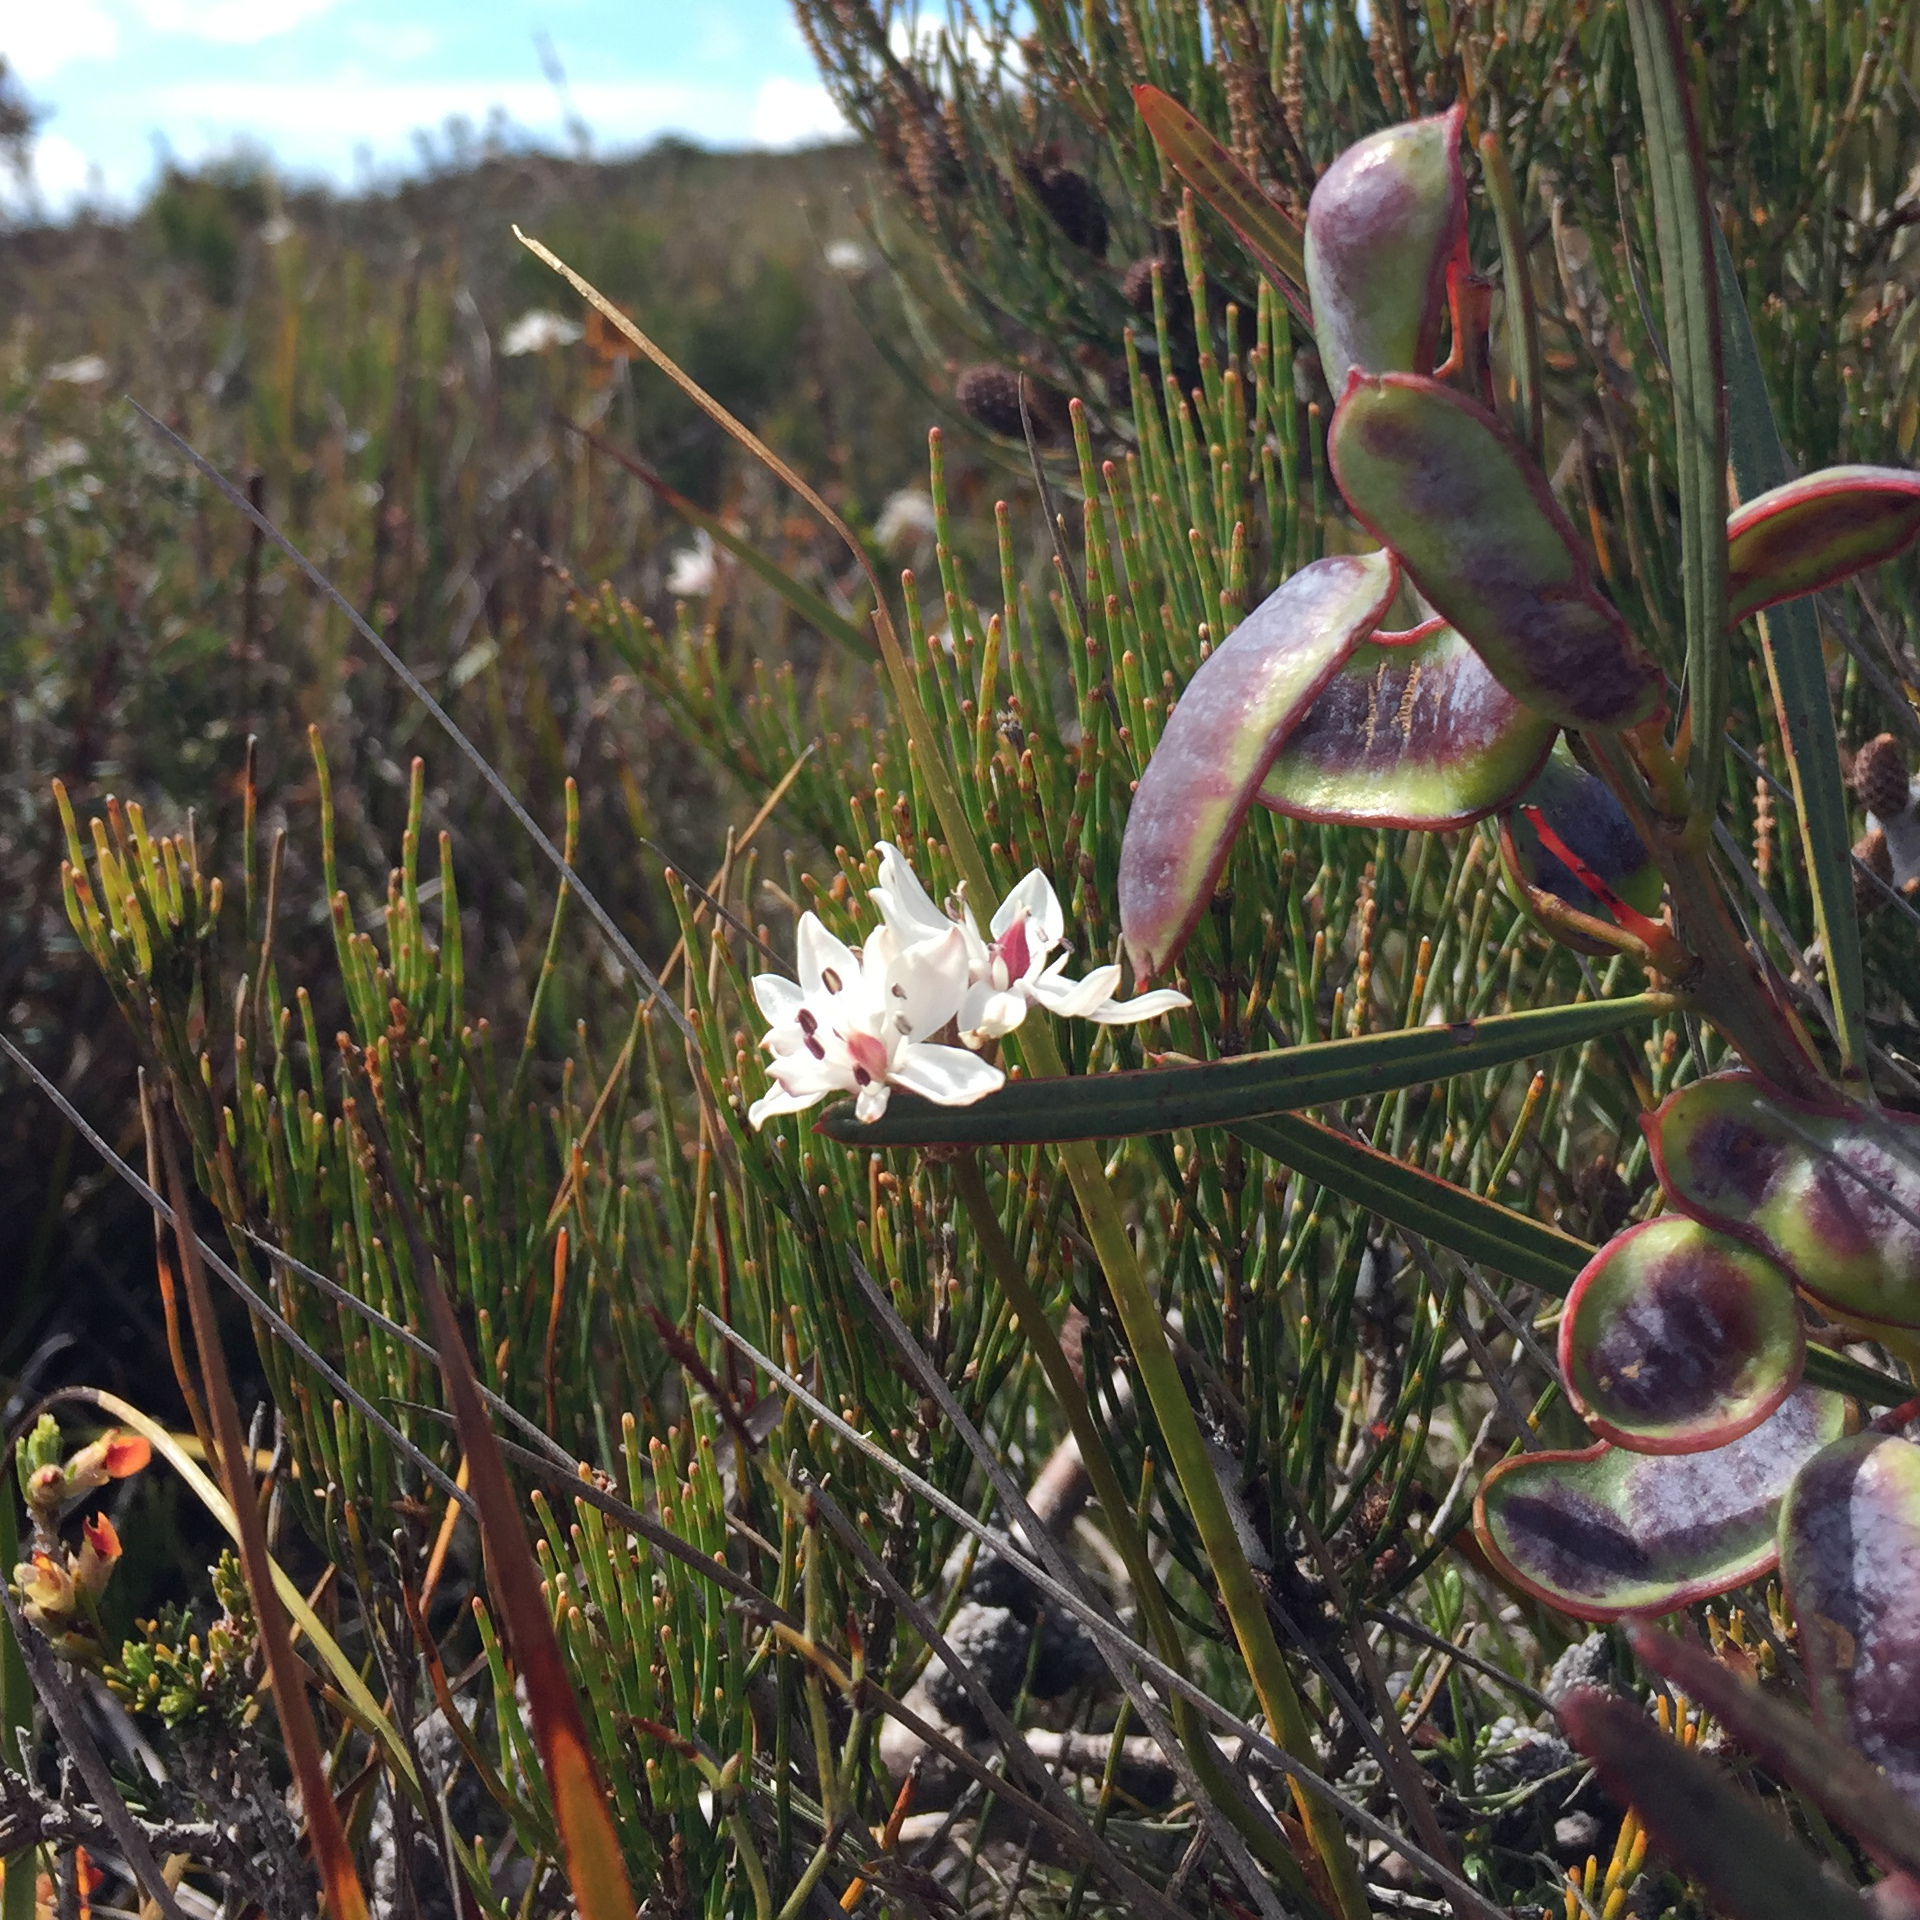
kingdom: Plantae
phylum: Tracheophyta
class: Liliopsida
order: Liliales
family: Colchicaceae
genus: Burchardia
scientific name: Burchardia umbellata
